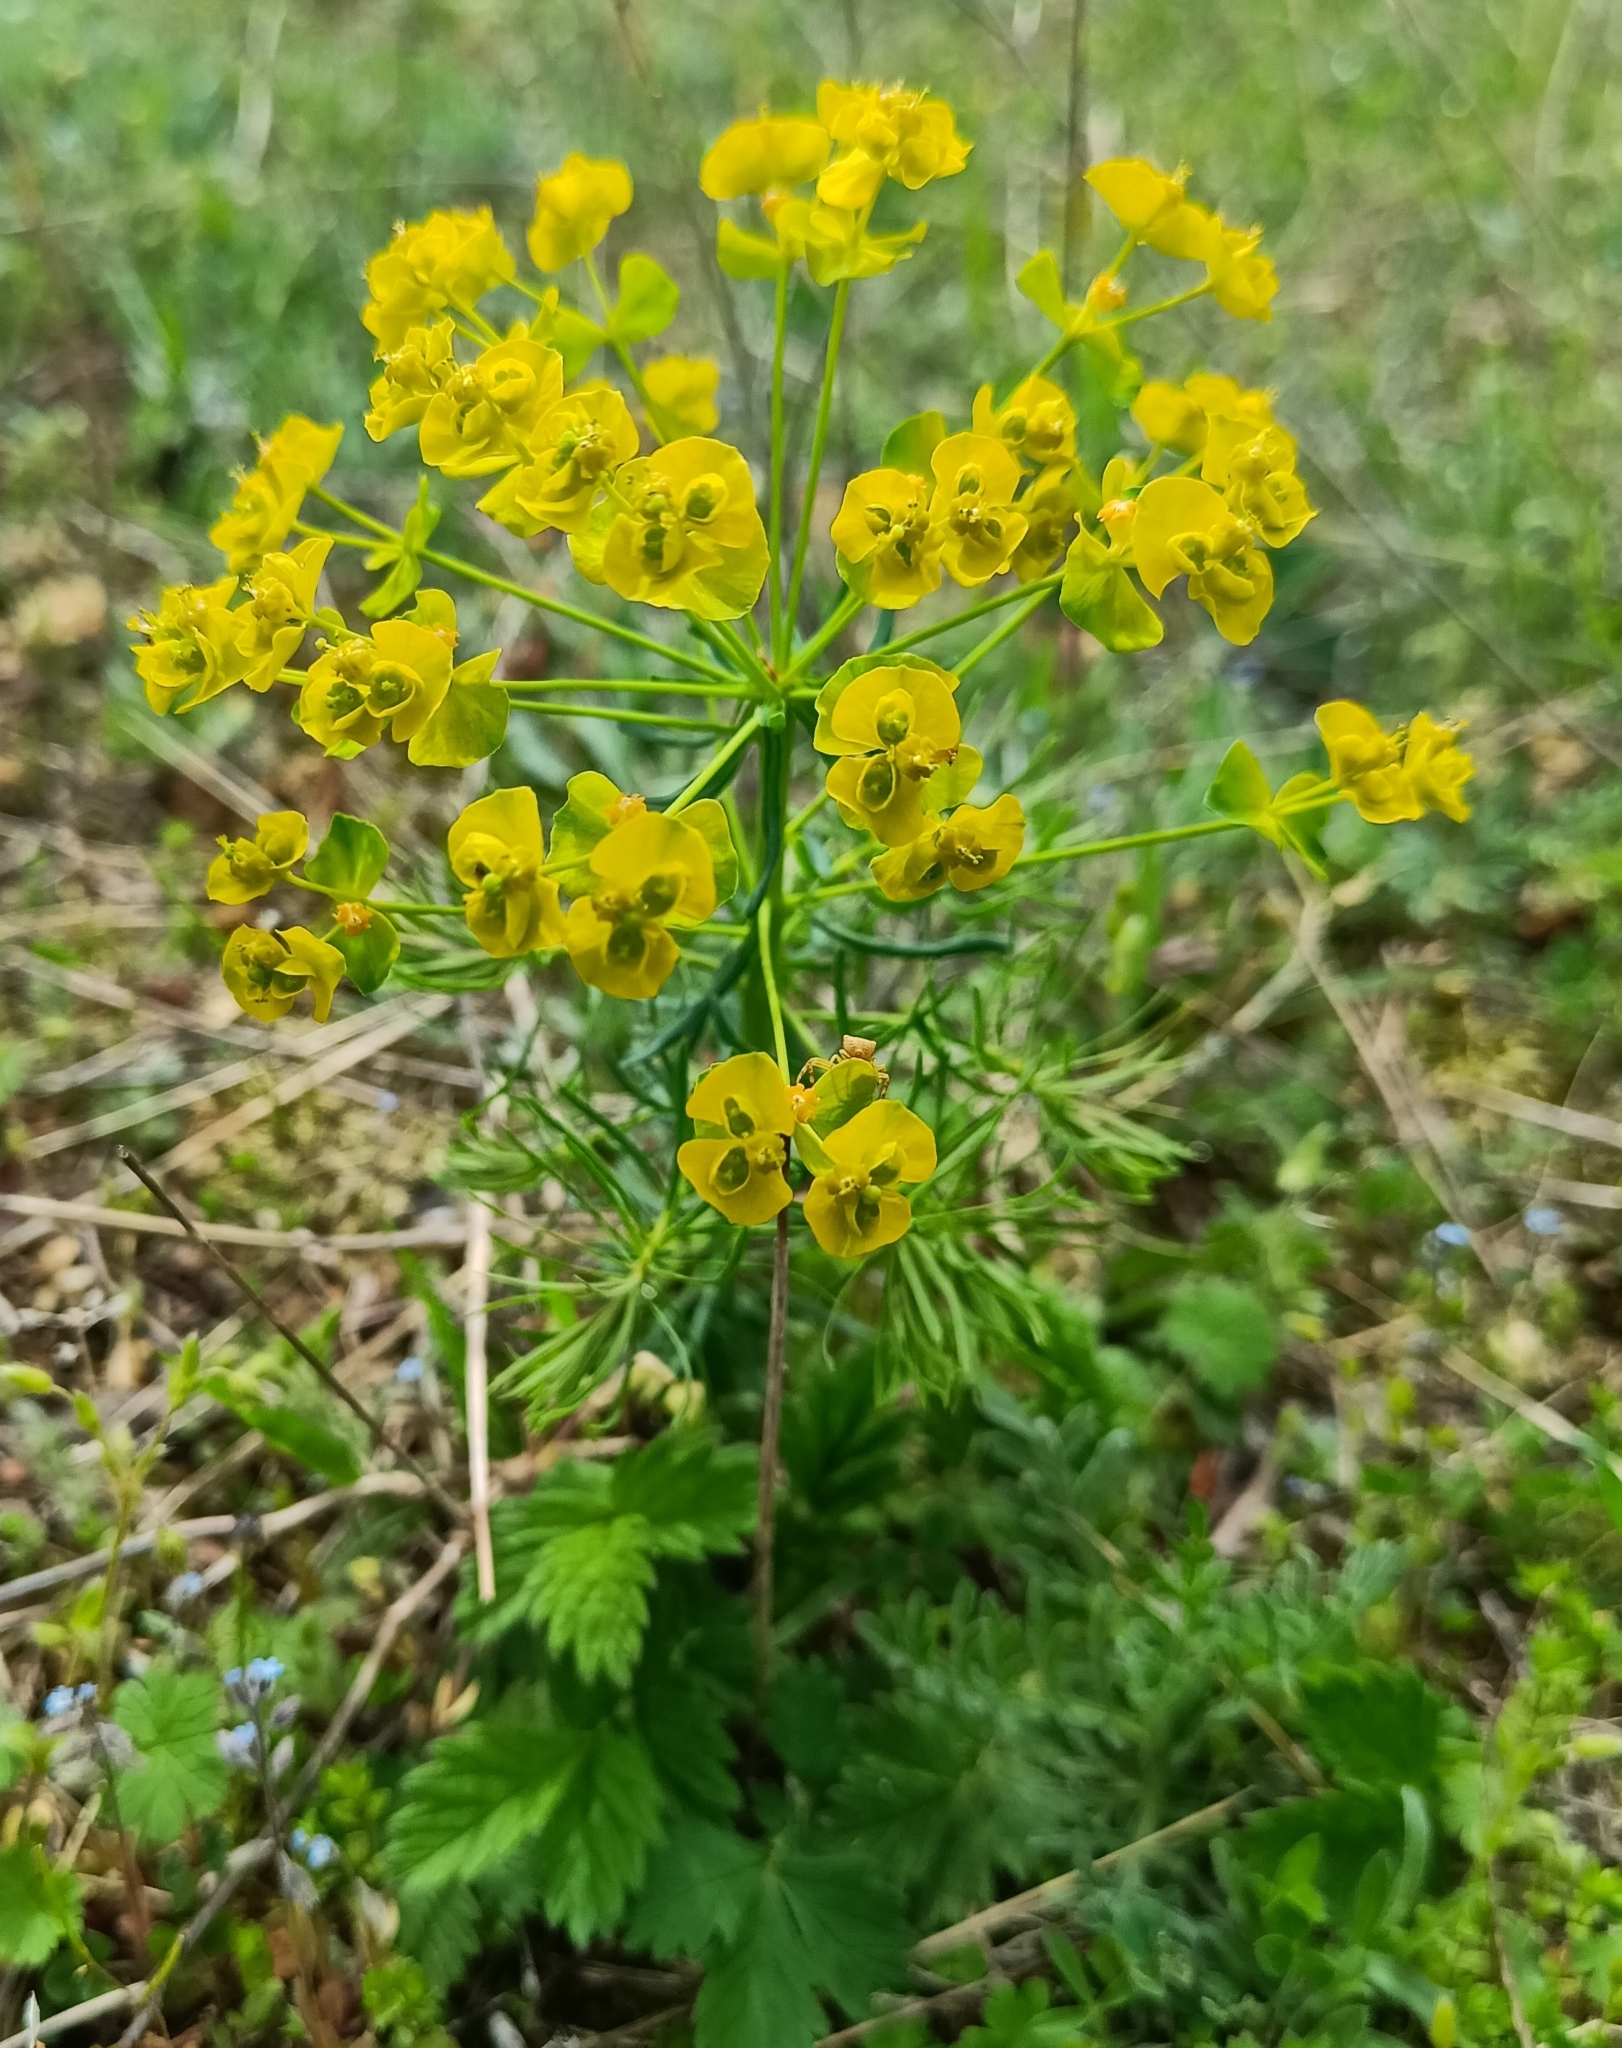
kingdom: Plantae
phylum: Tracheophyta
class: Magnoliopsida
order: Malpighiales
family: Euphorbiaceae
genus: Euphorbia
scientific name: Euphorbia cyparissias
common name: Cypress spurge
